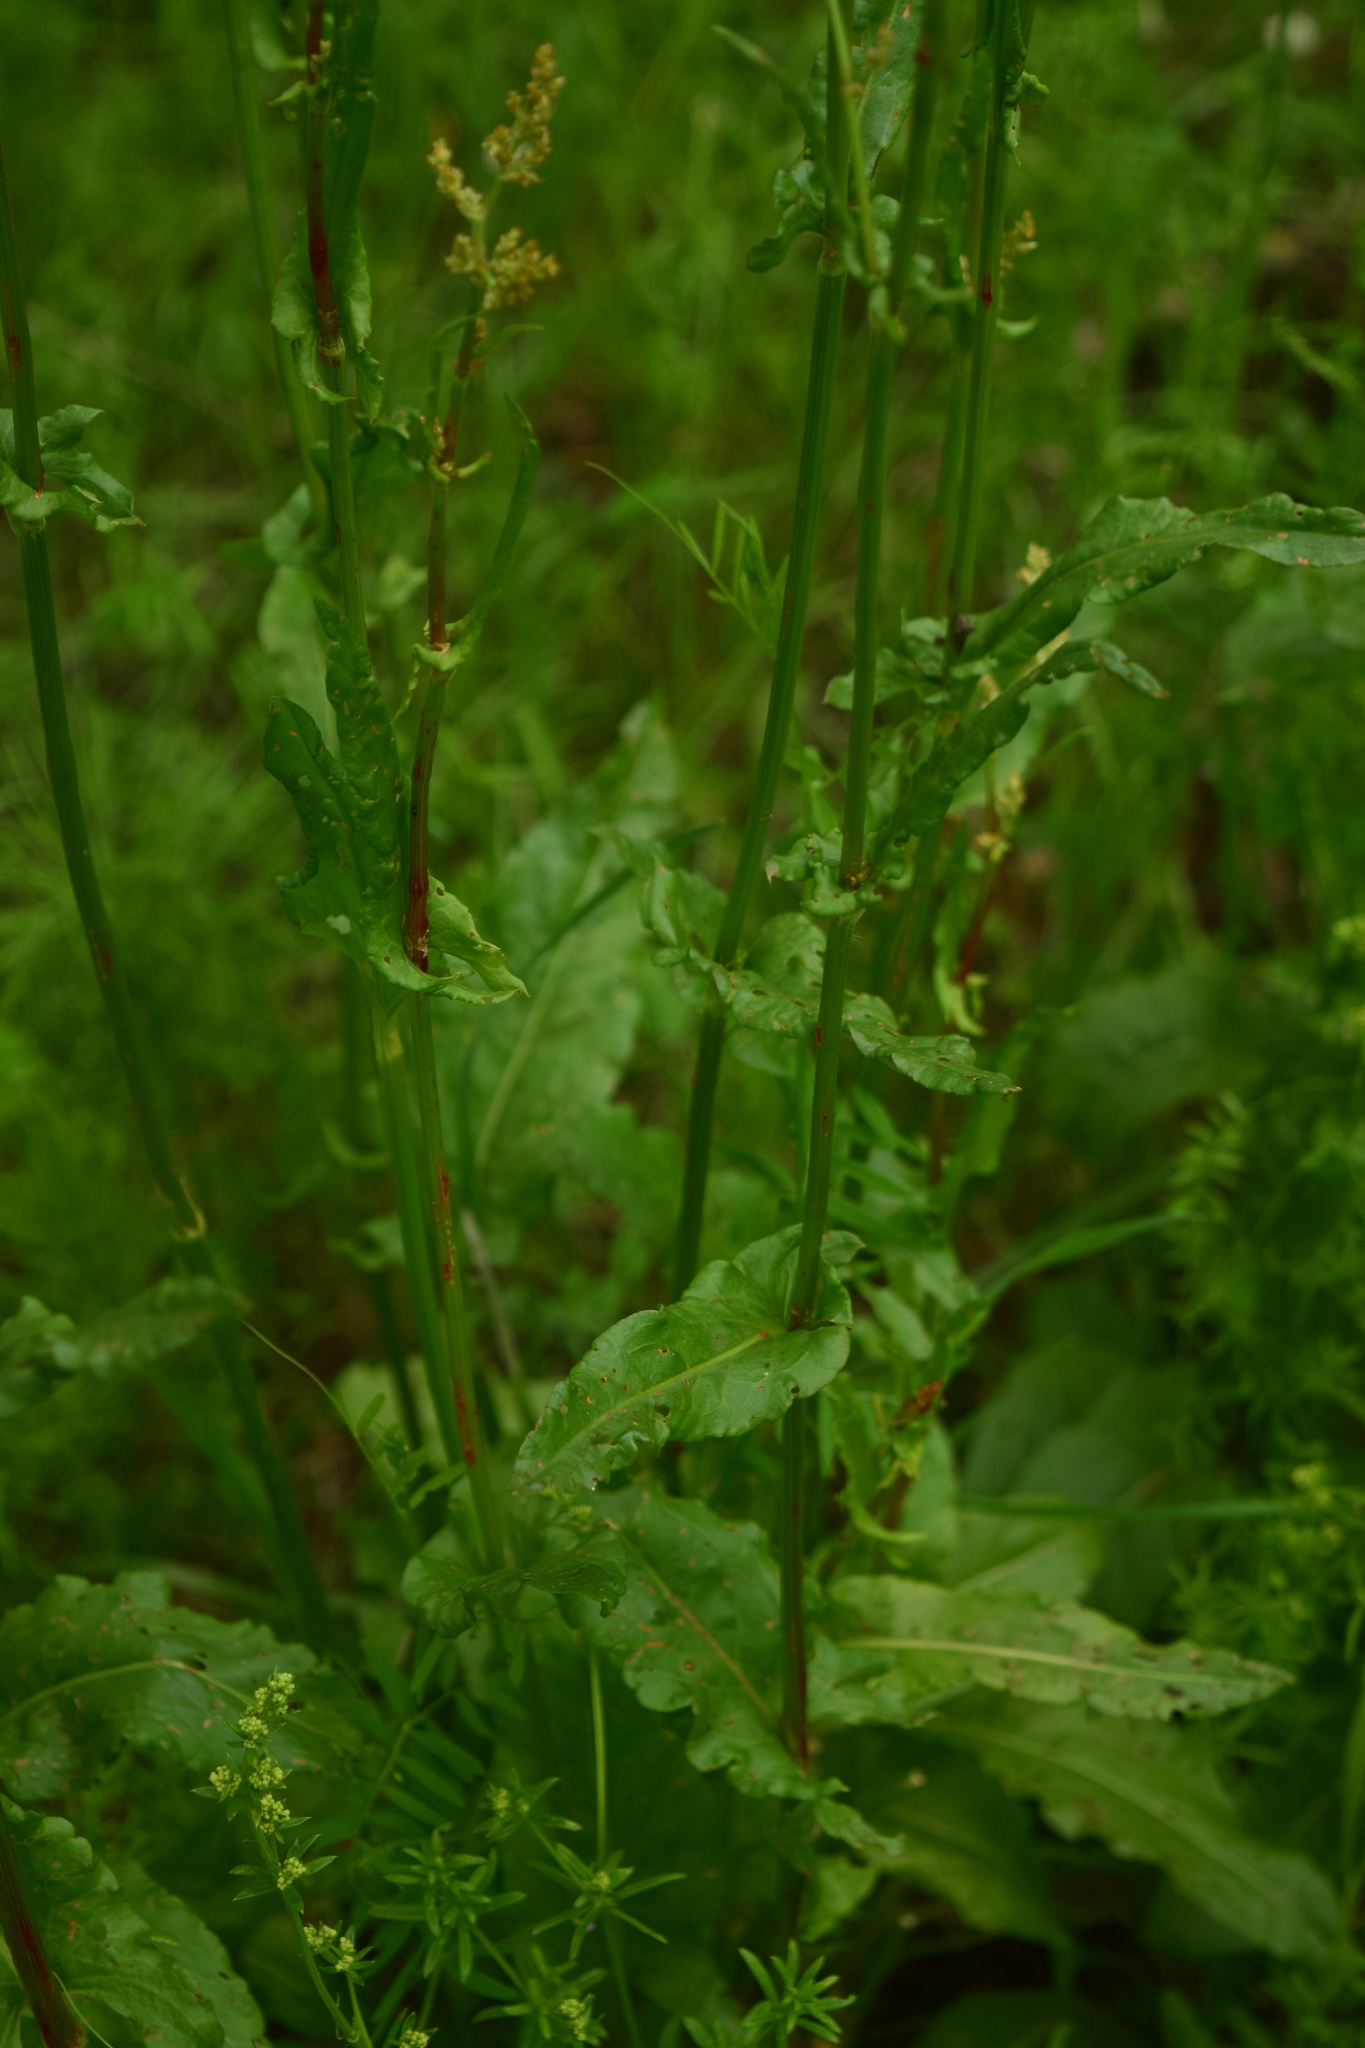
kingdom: Plantae
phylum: Tracheophyta
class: Magnoliopsida
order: Caryophyllales
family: Polygonaceae
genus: Rumex
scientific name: Rumex thyrsiflorus
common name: Garden sorrel
